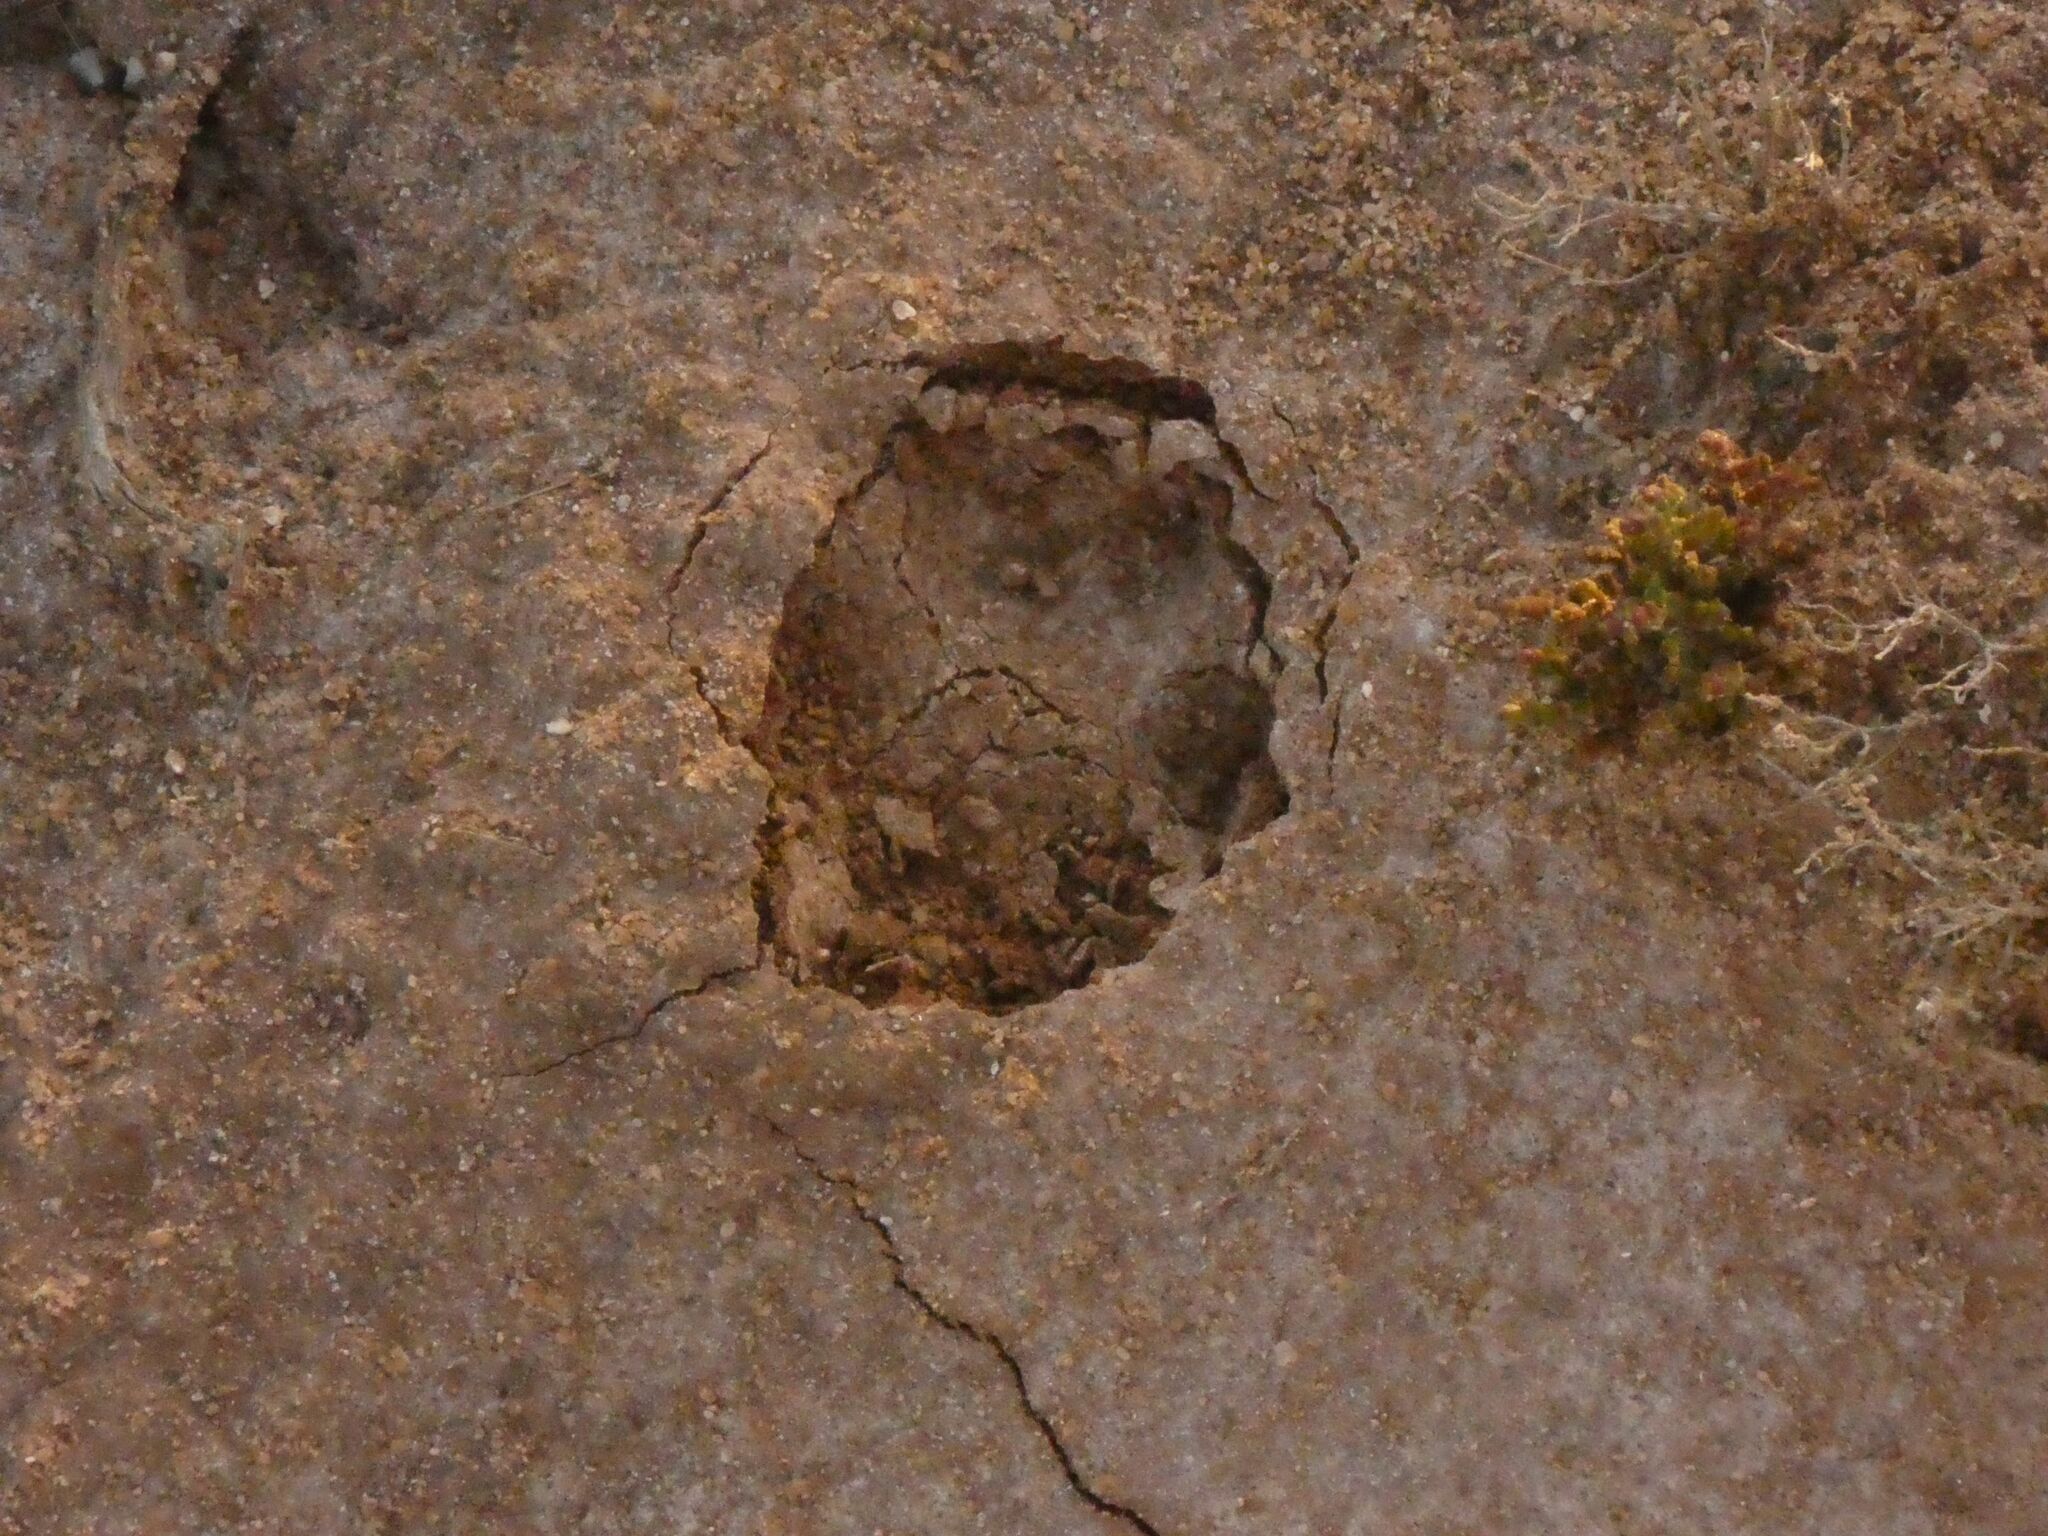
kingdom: Animalia
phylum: Chordata
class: Mammalia
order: Carnivora
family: Canidae
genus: Canis
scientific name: Canis lupus
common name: Gray wolf
